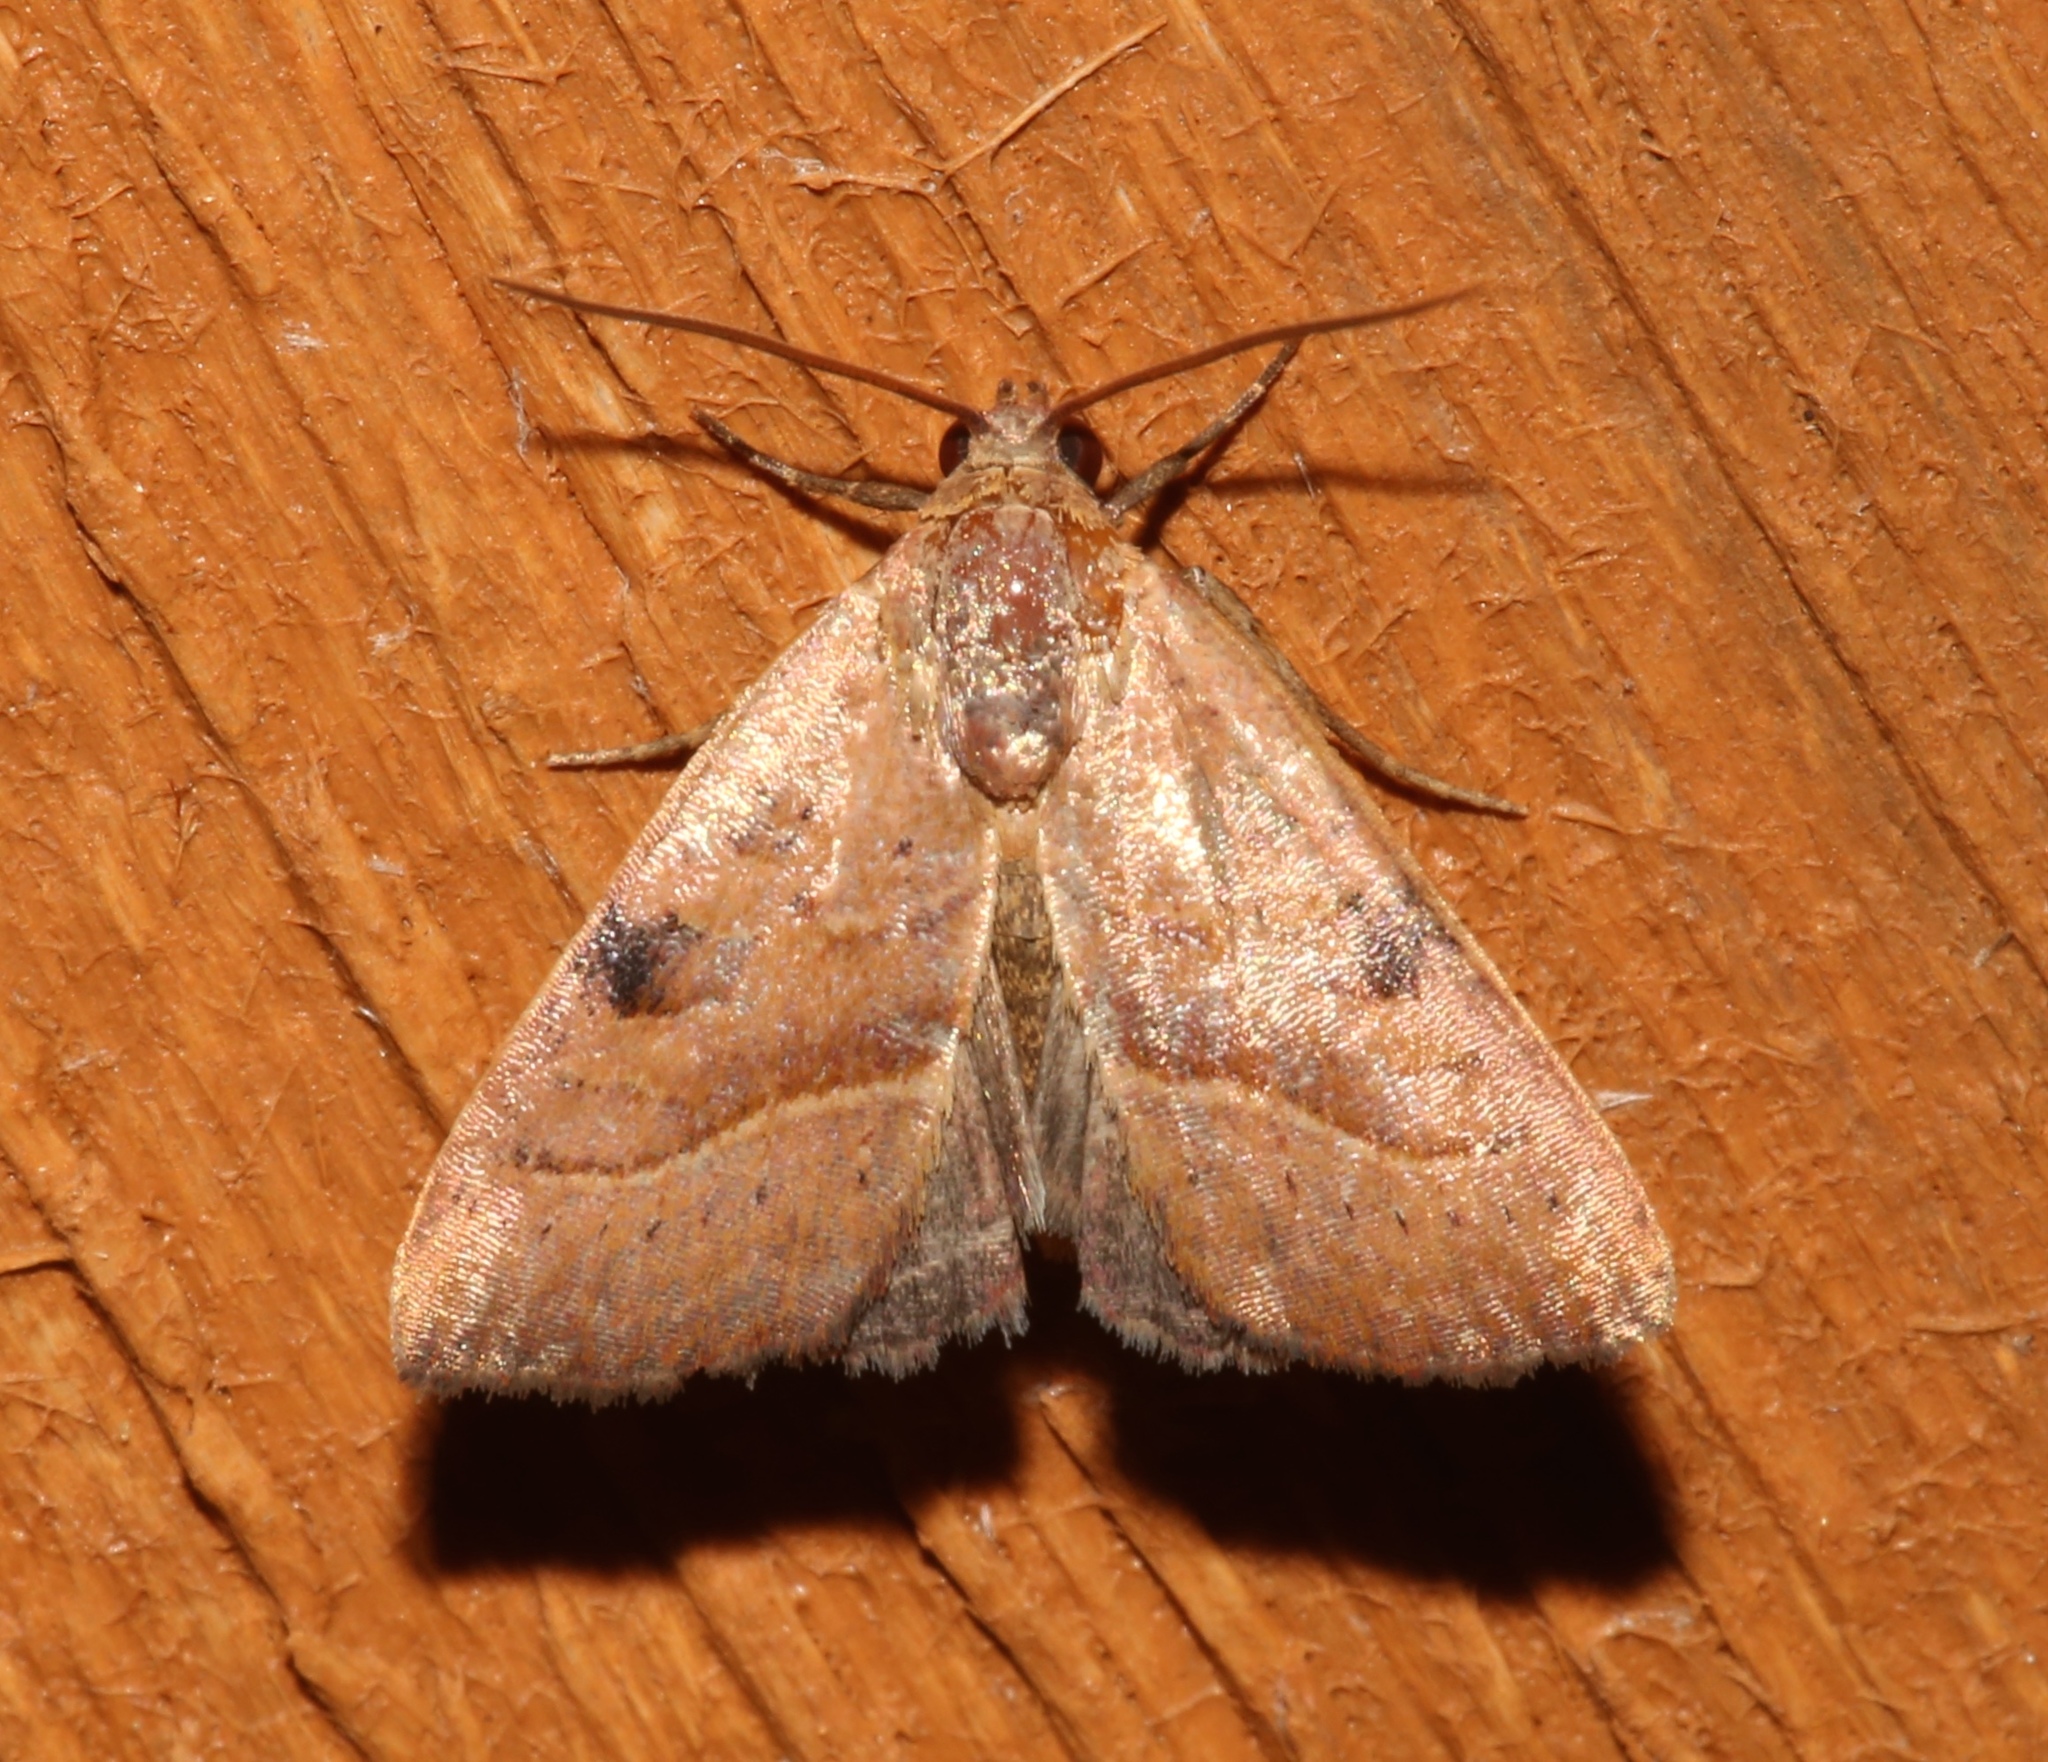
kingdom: Animalia
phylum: Arthropoda
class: Insecta
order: Lepidoptera
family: Noctuidae
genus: Galgula
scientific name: Galgula partita
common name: Wedgeling
